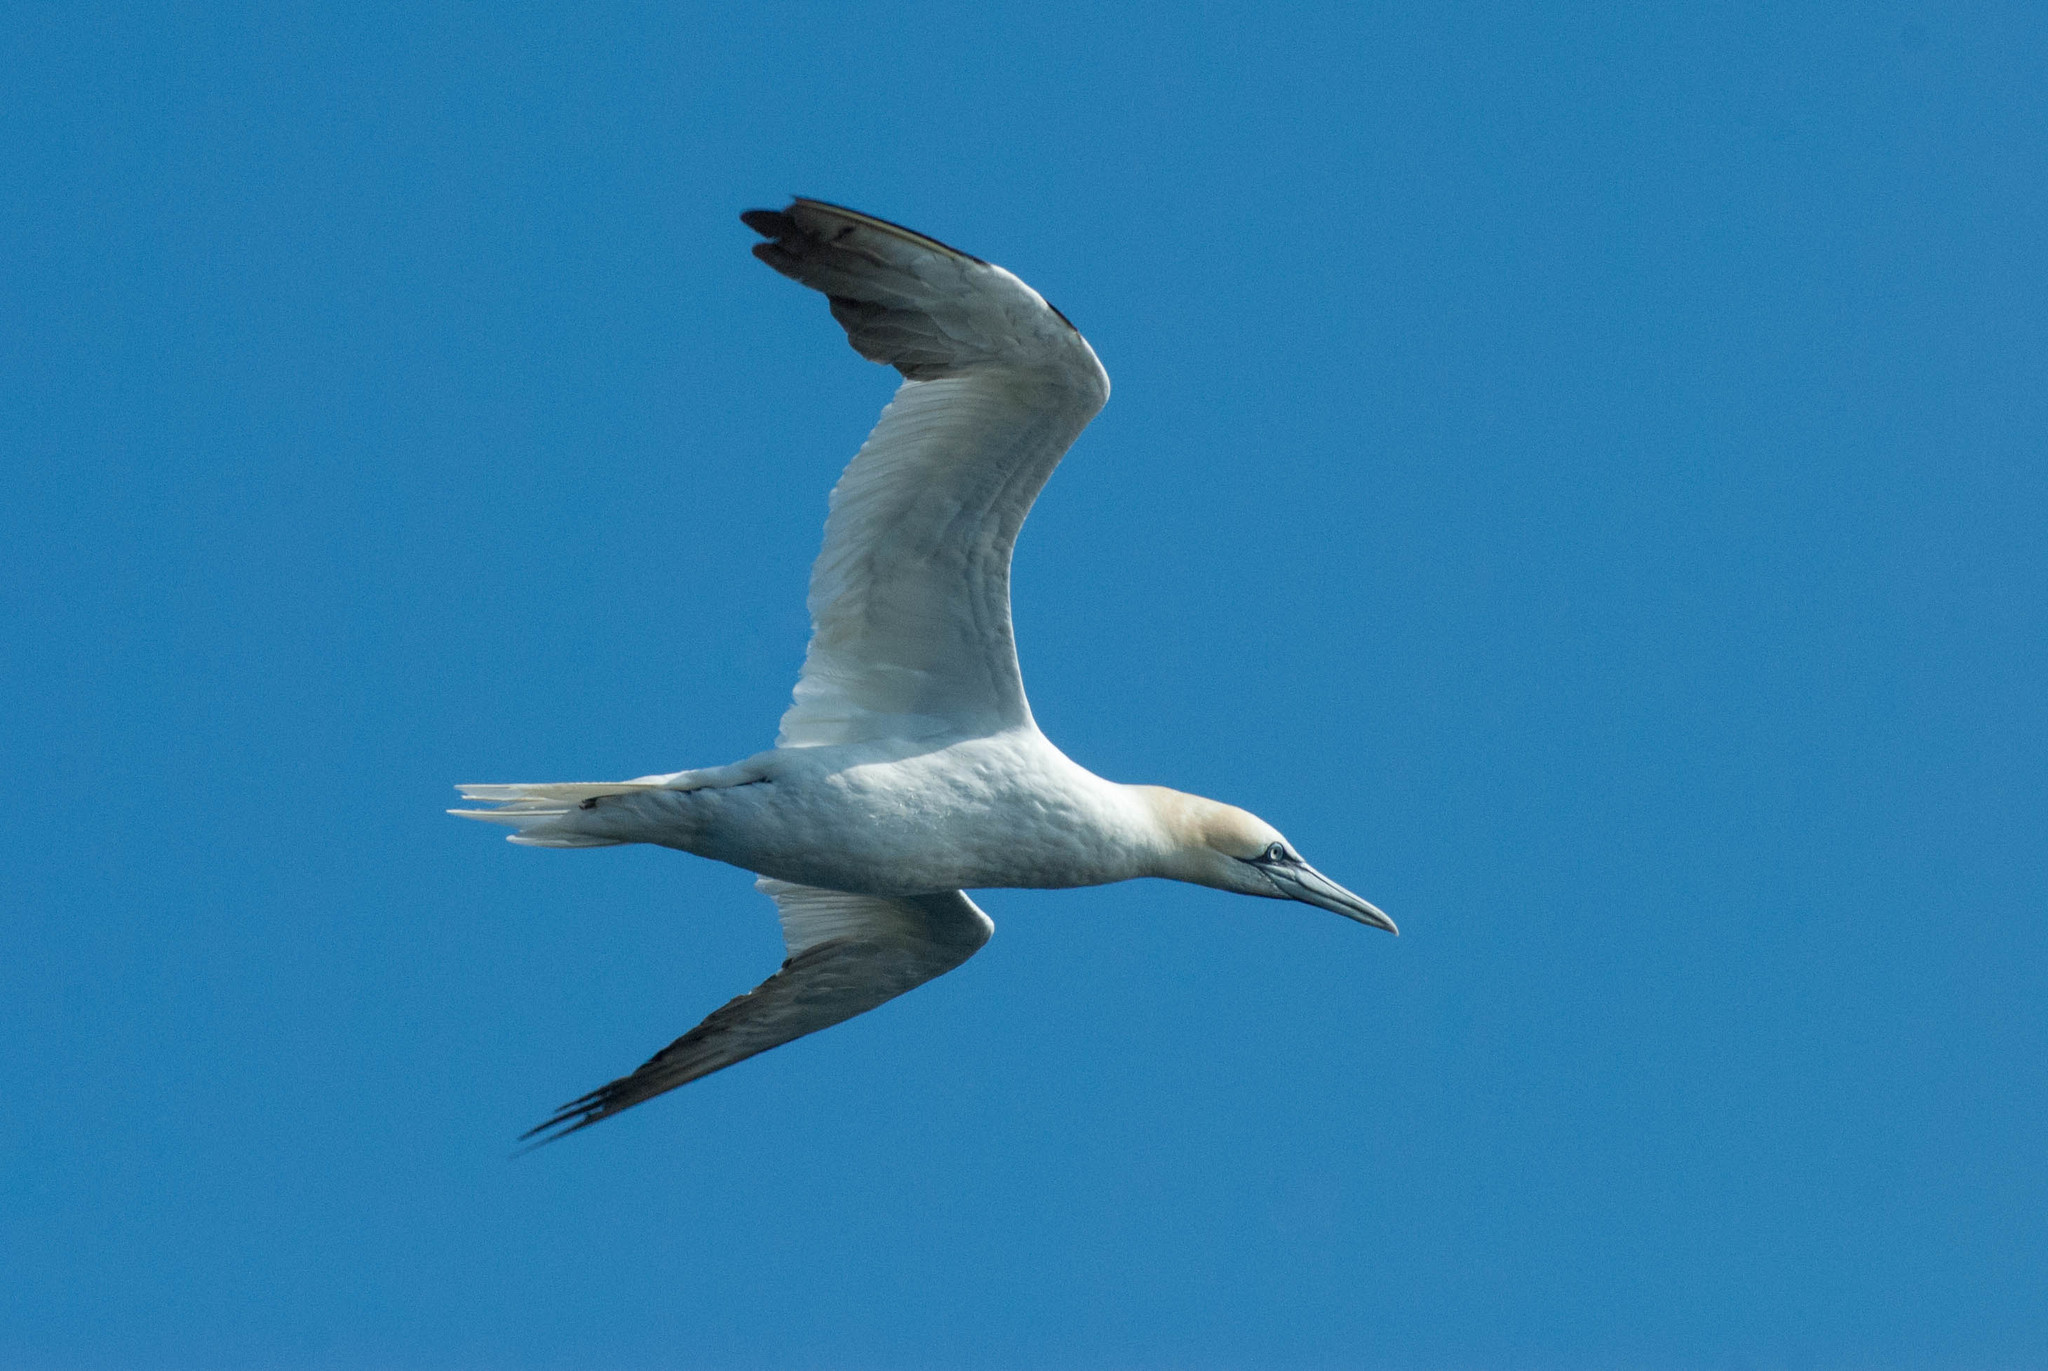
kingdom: Animalia
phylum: Chordata
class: Aves
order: Suliformes
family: Sulidae
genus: Morus
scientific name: Morus bassanus
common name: Northern gannet
